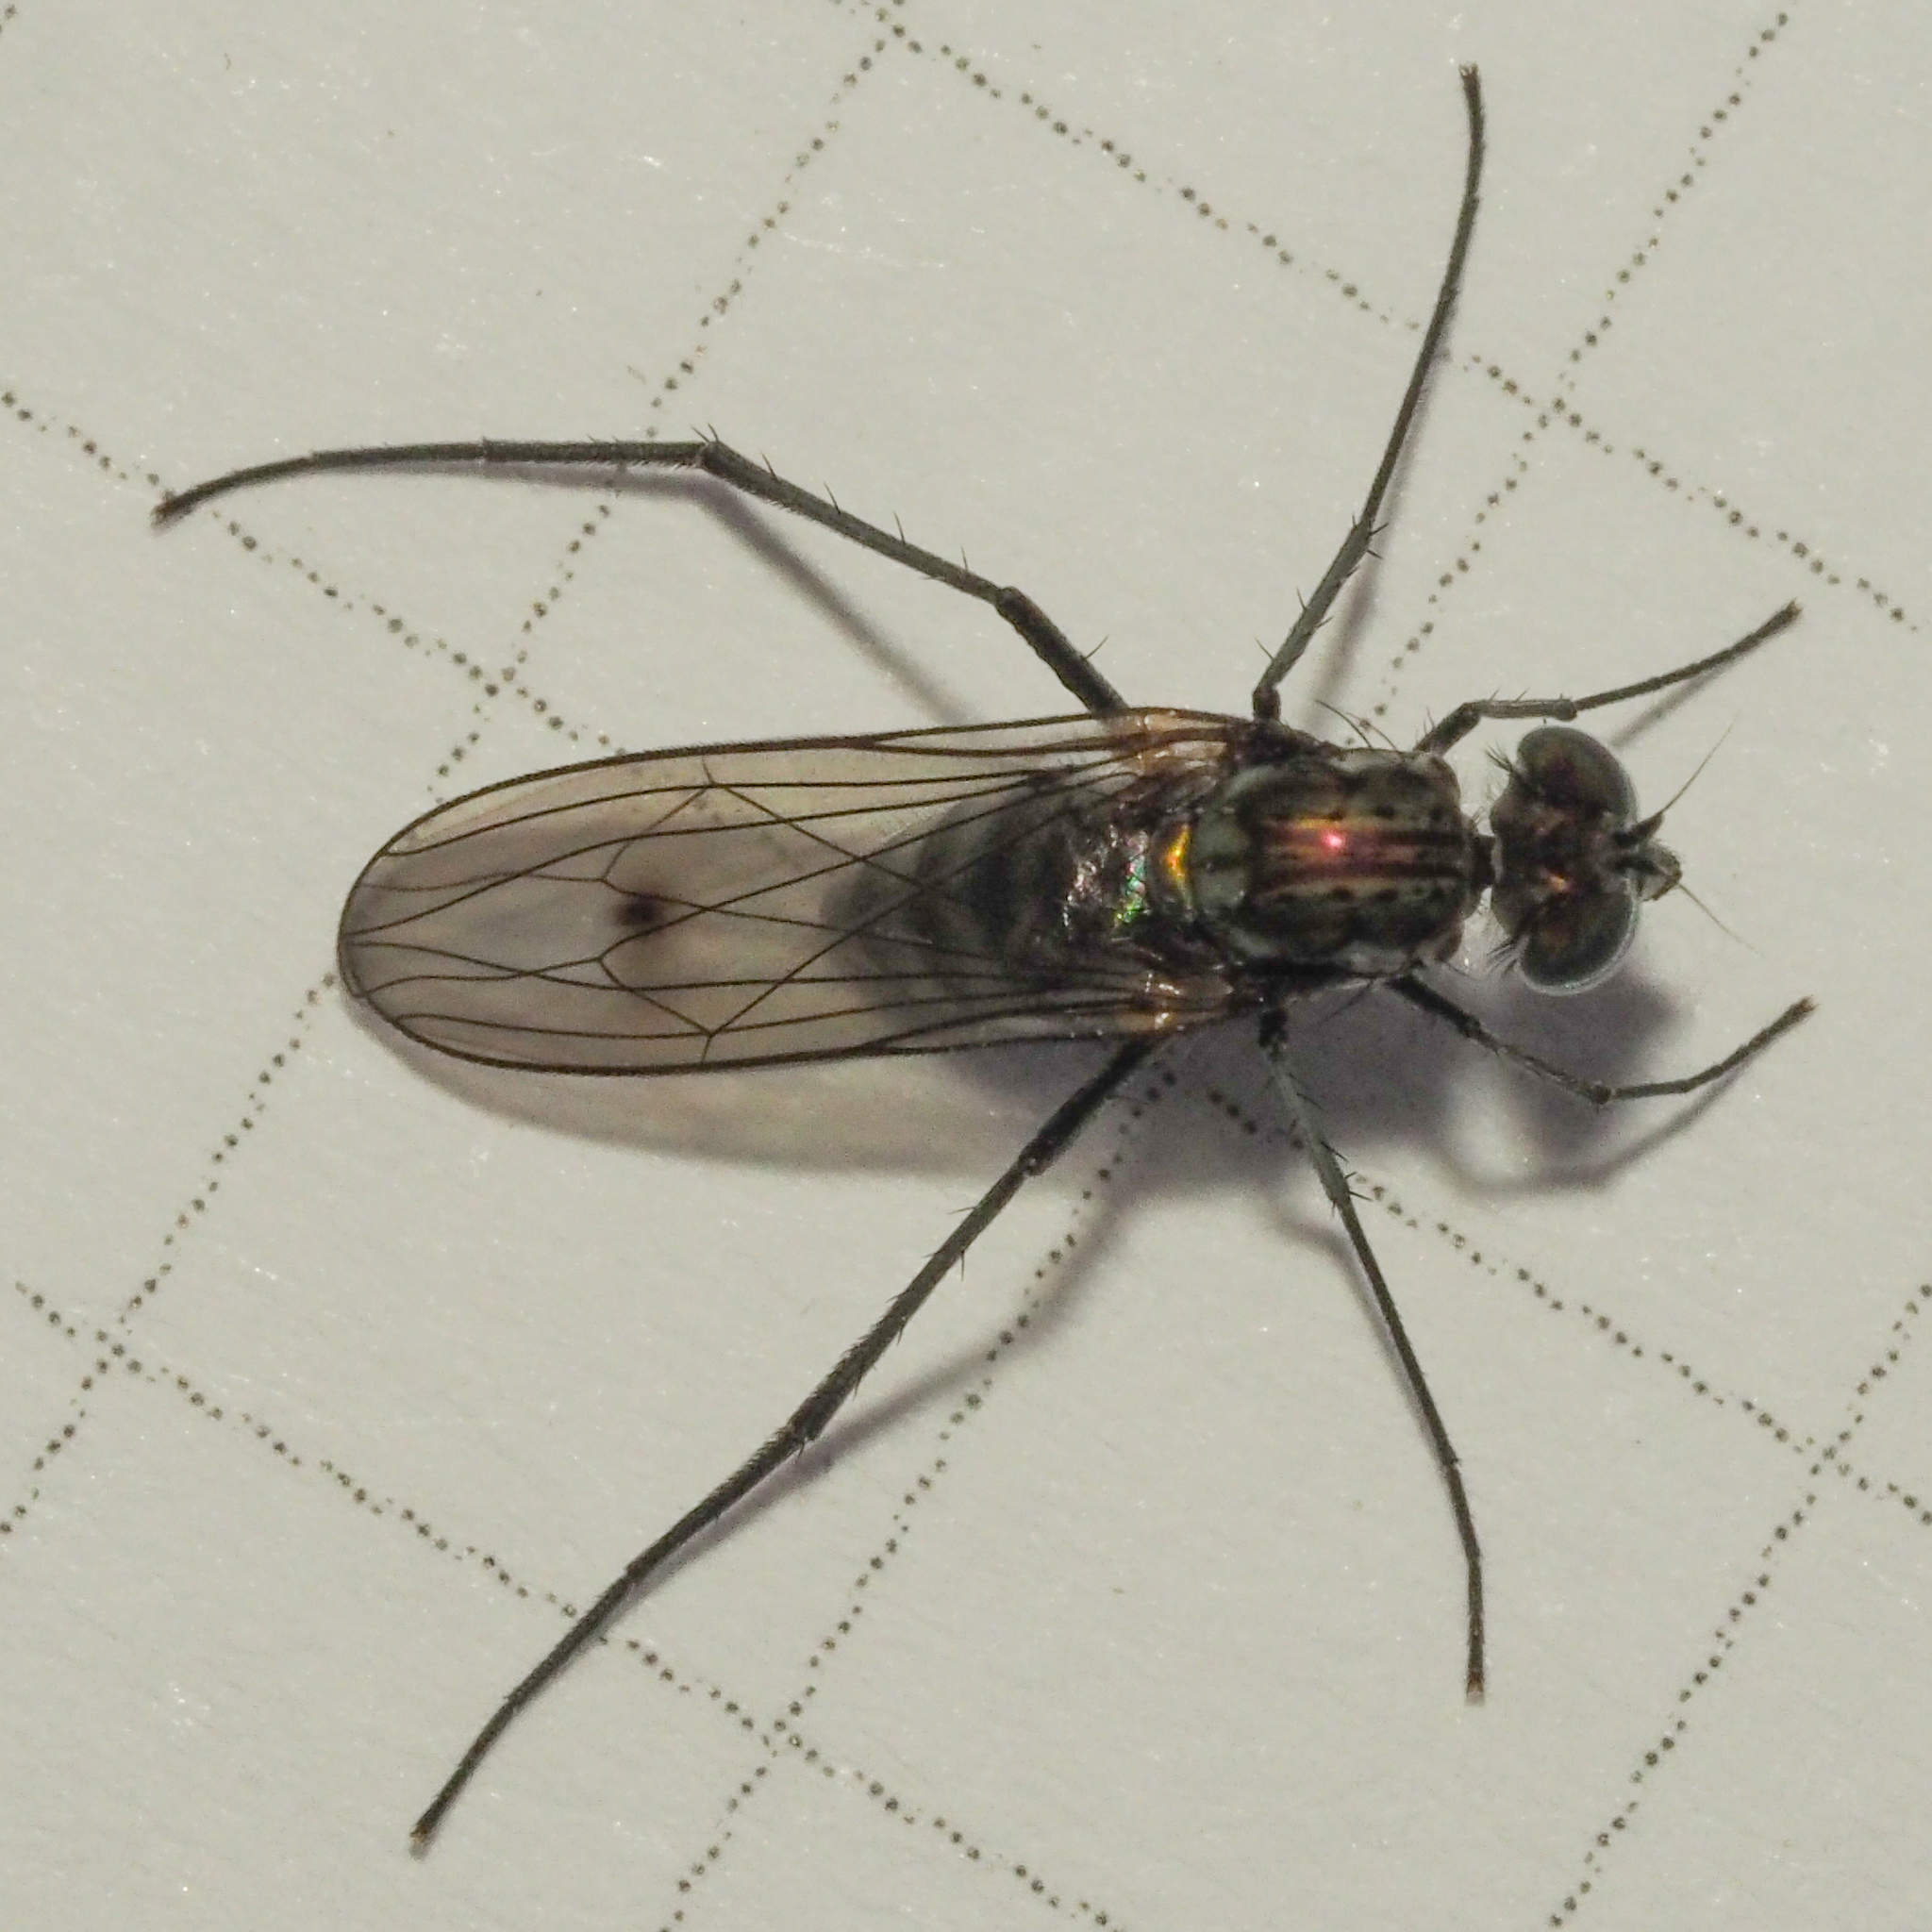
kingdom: Animalia
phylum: Arthropoda
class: Insecta
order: Diptera
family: Dolichopodidae
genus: Liancalus
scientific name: Liancalus virens
